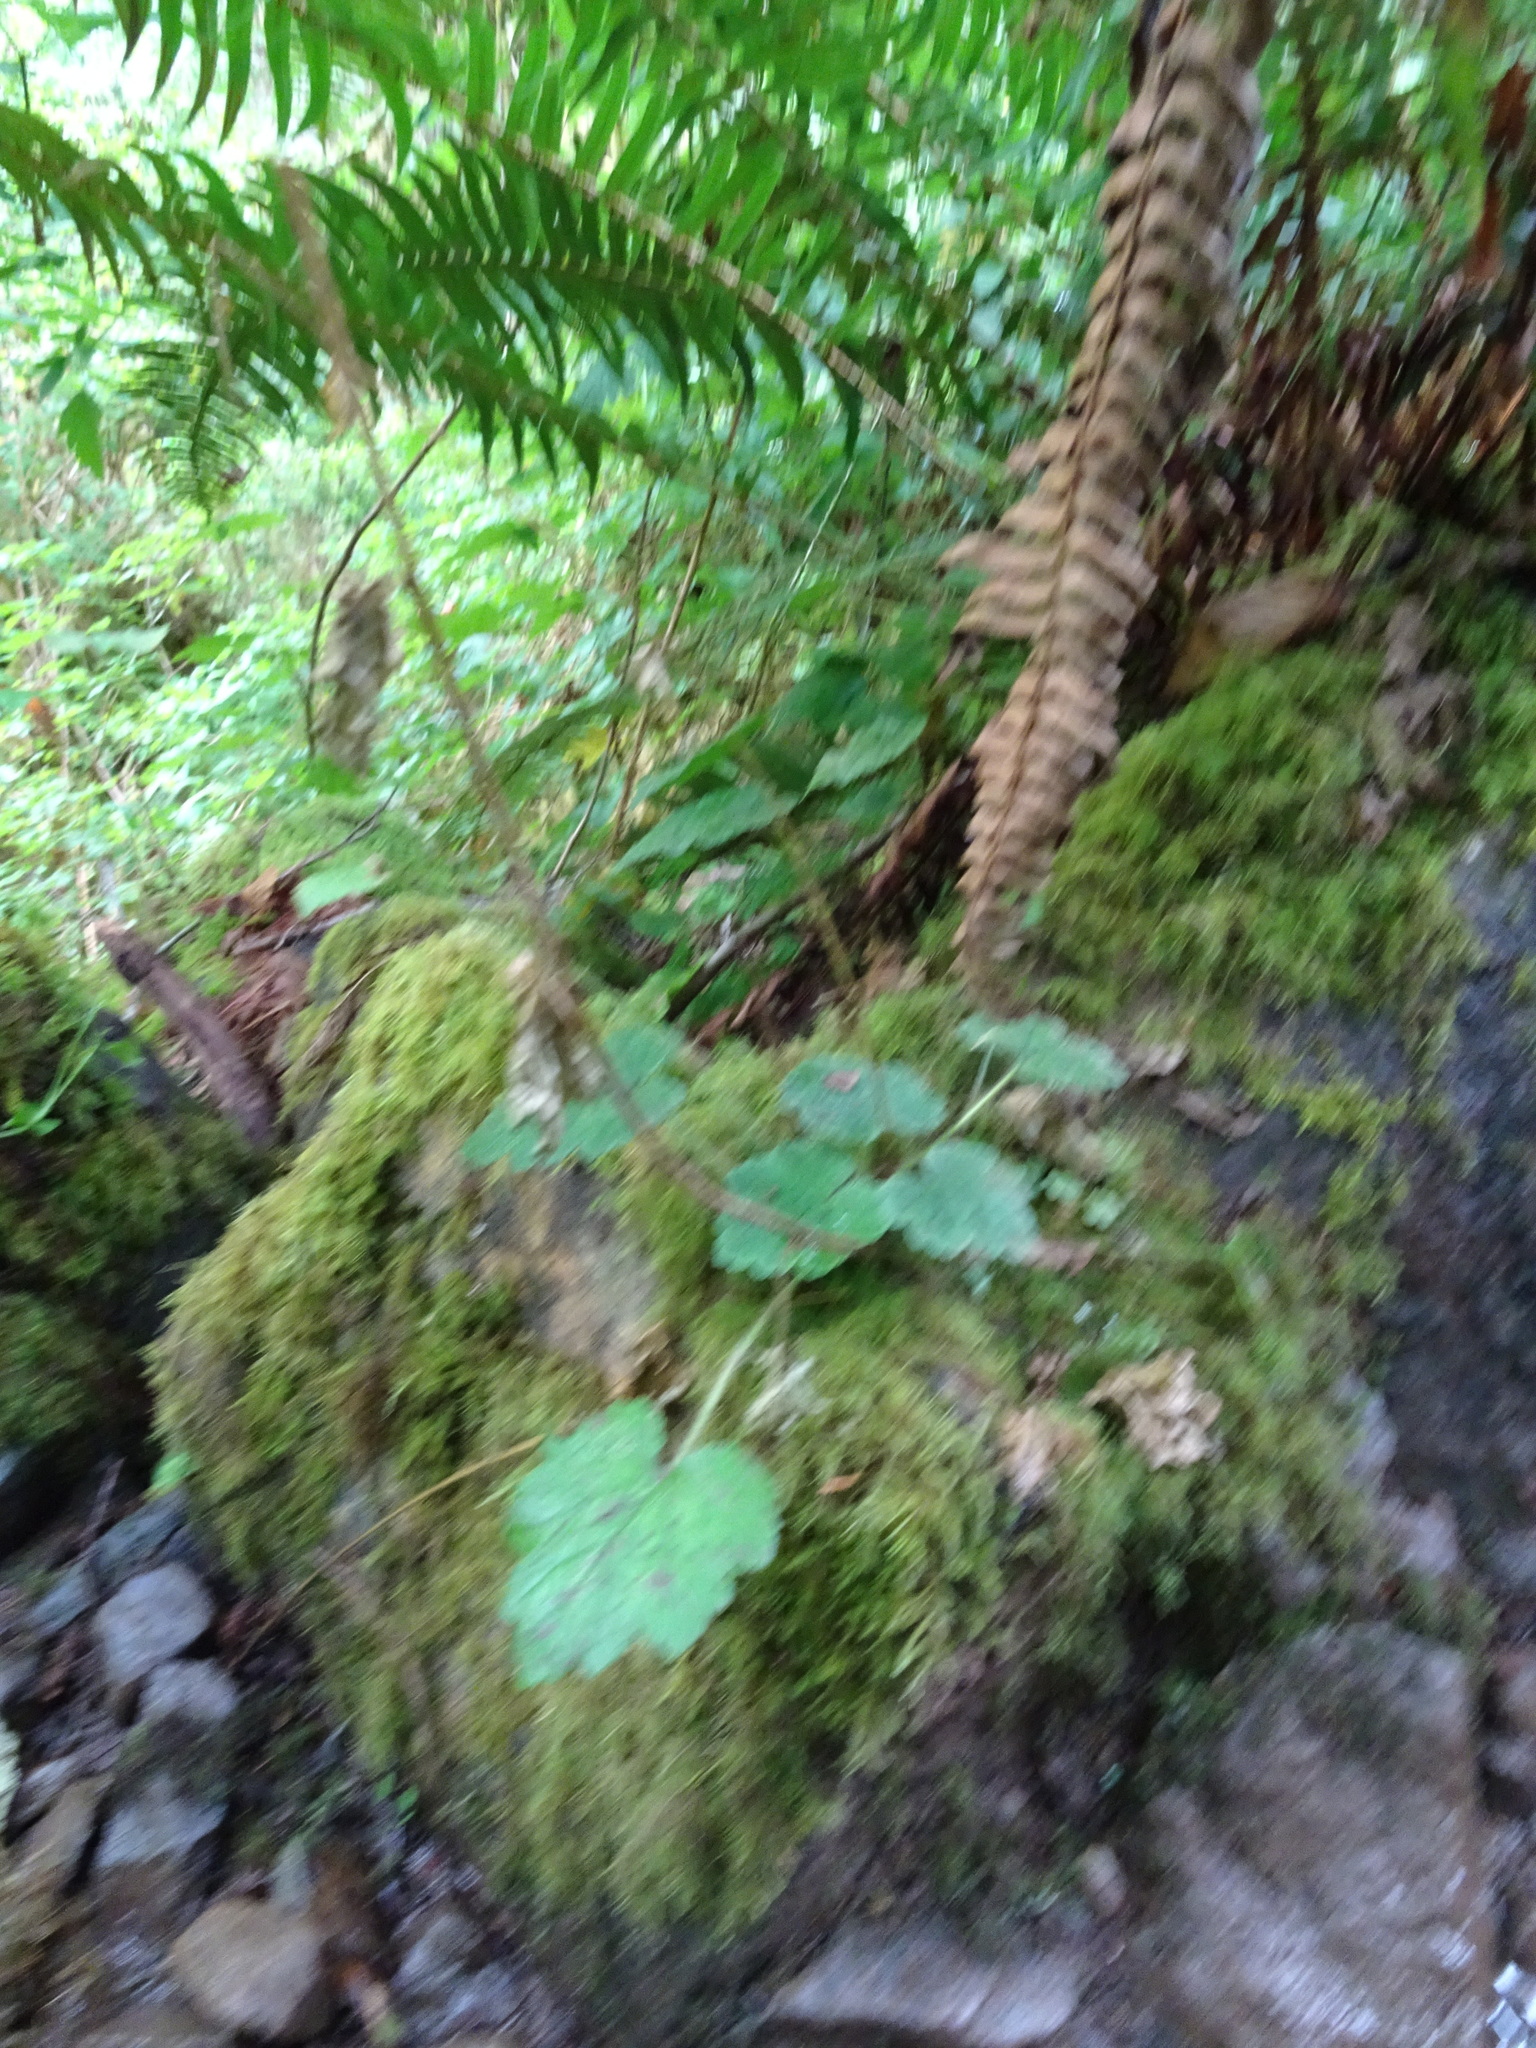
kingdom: Plantae
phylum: Tracheophyta
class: Magnoliopsida
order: Saxifragales
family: Saxifragaceae
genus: Tellima
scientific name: Tellima grandiflora
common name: Fringecups
